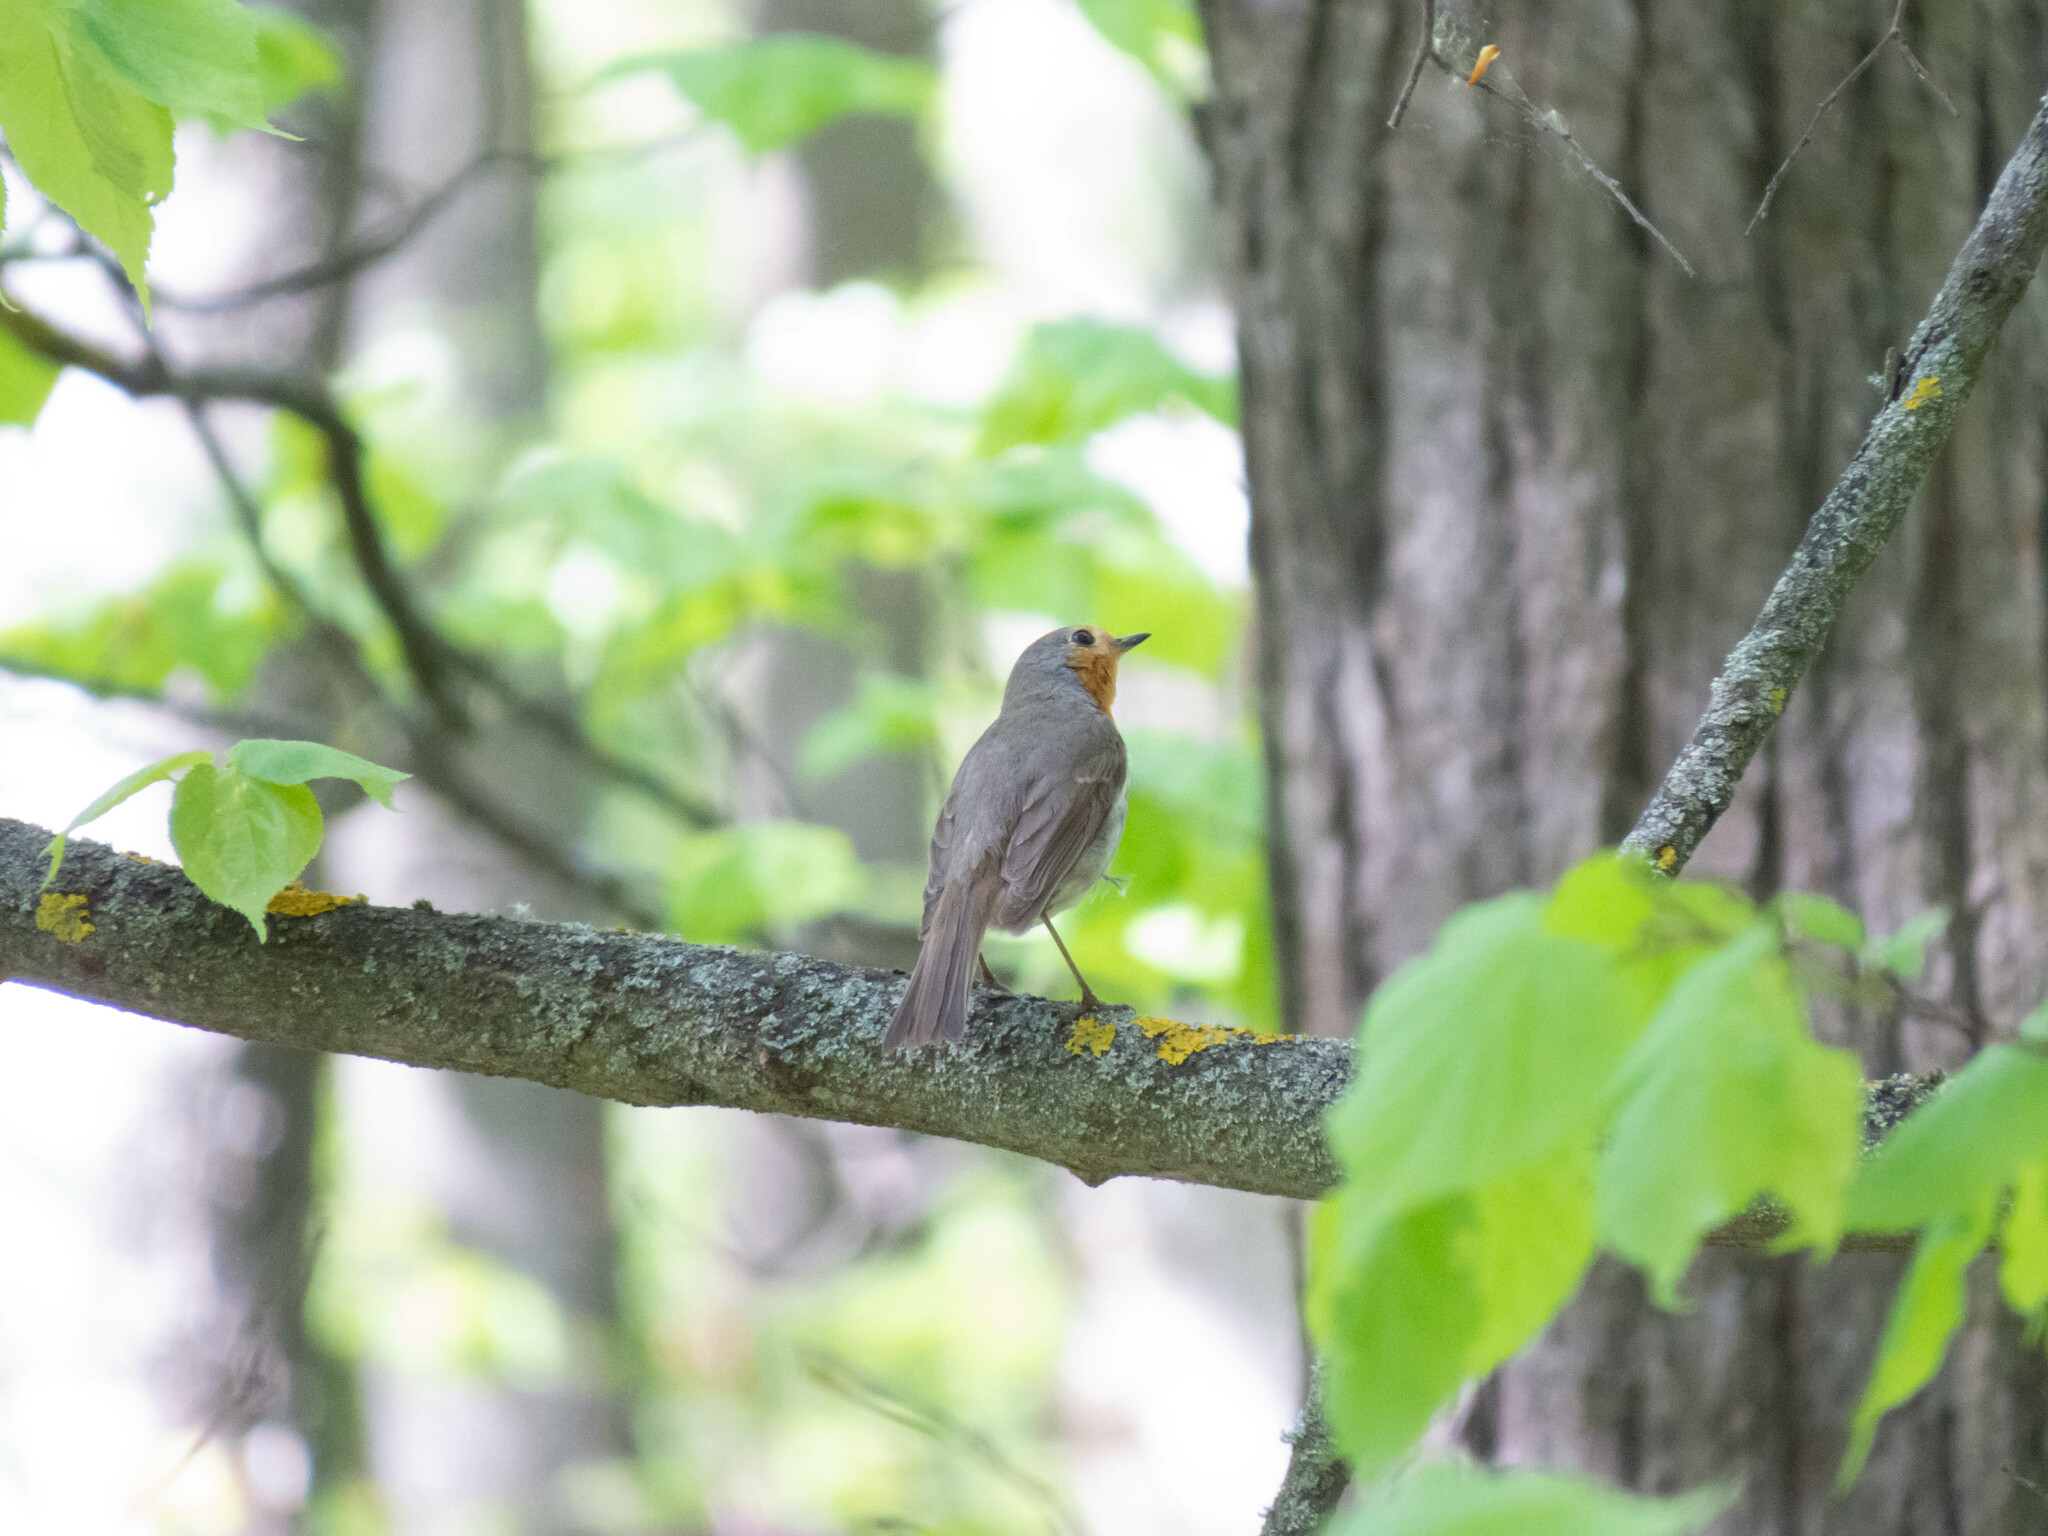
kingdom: Animalia
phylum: Chordata
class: Aves
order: Passeriformes
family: Muscicapidae
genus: Erithacus
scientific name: Erithacus rubecula
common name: European robin
